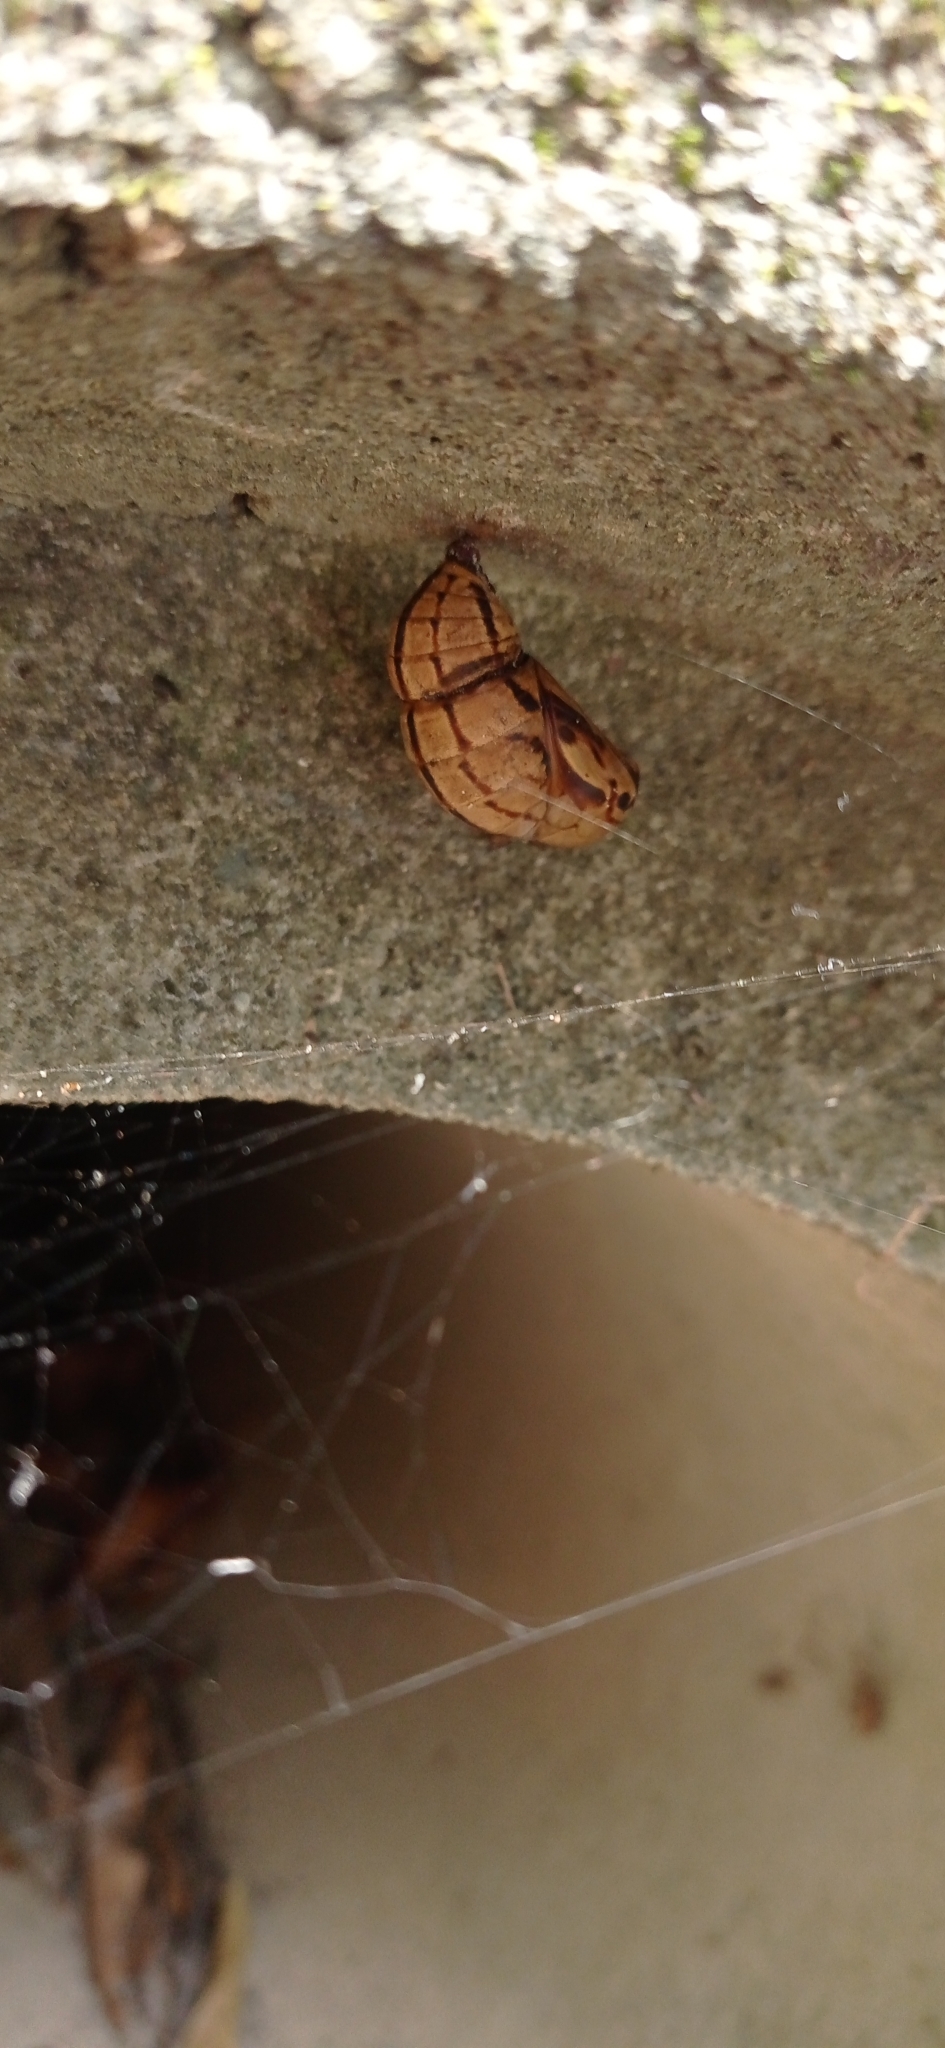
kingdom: Animalia
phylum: Arthropoda
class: Insecta
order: Lepidoptera
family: Nymphalidae
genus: Brassolis
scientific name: Brassolis sophorae
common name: Coconut caterpillar
